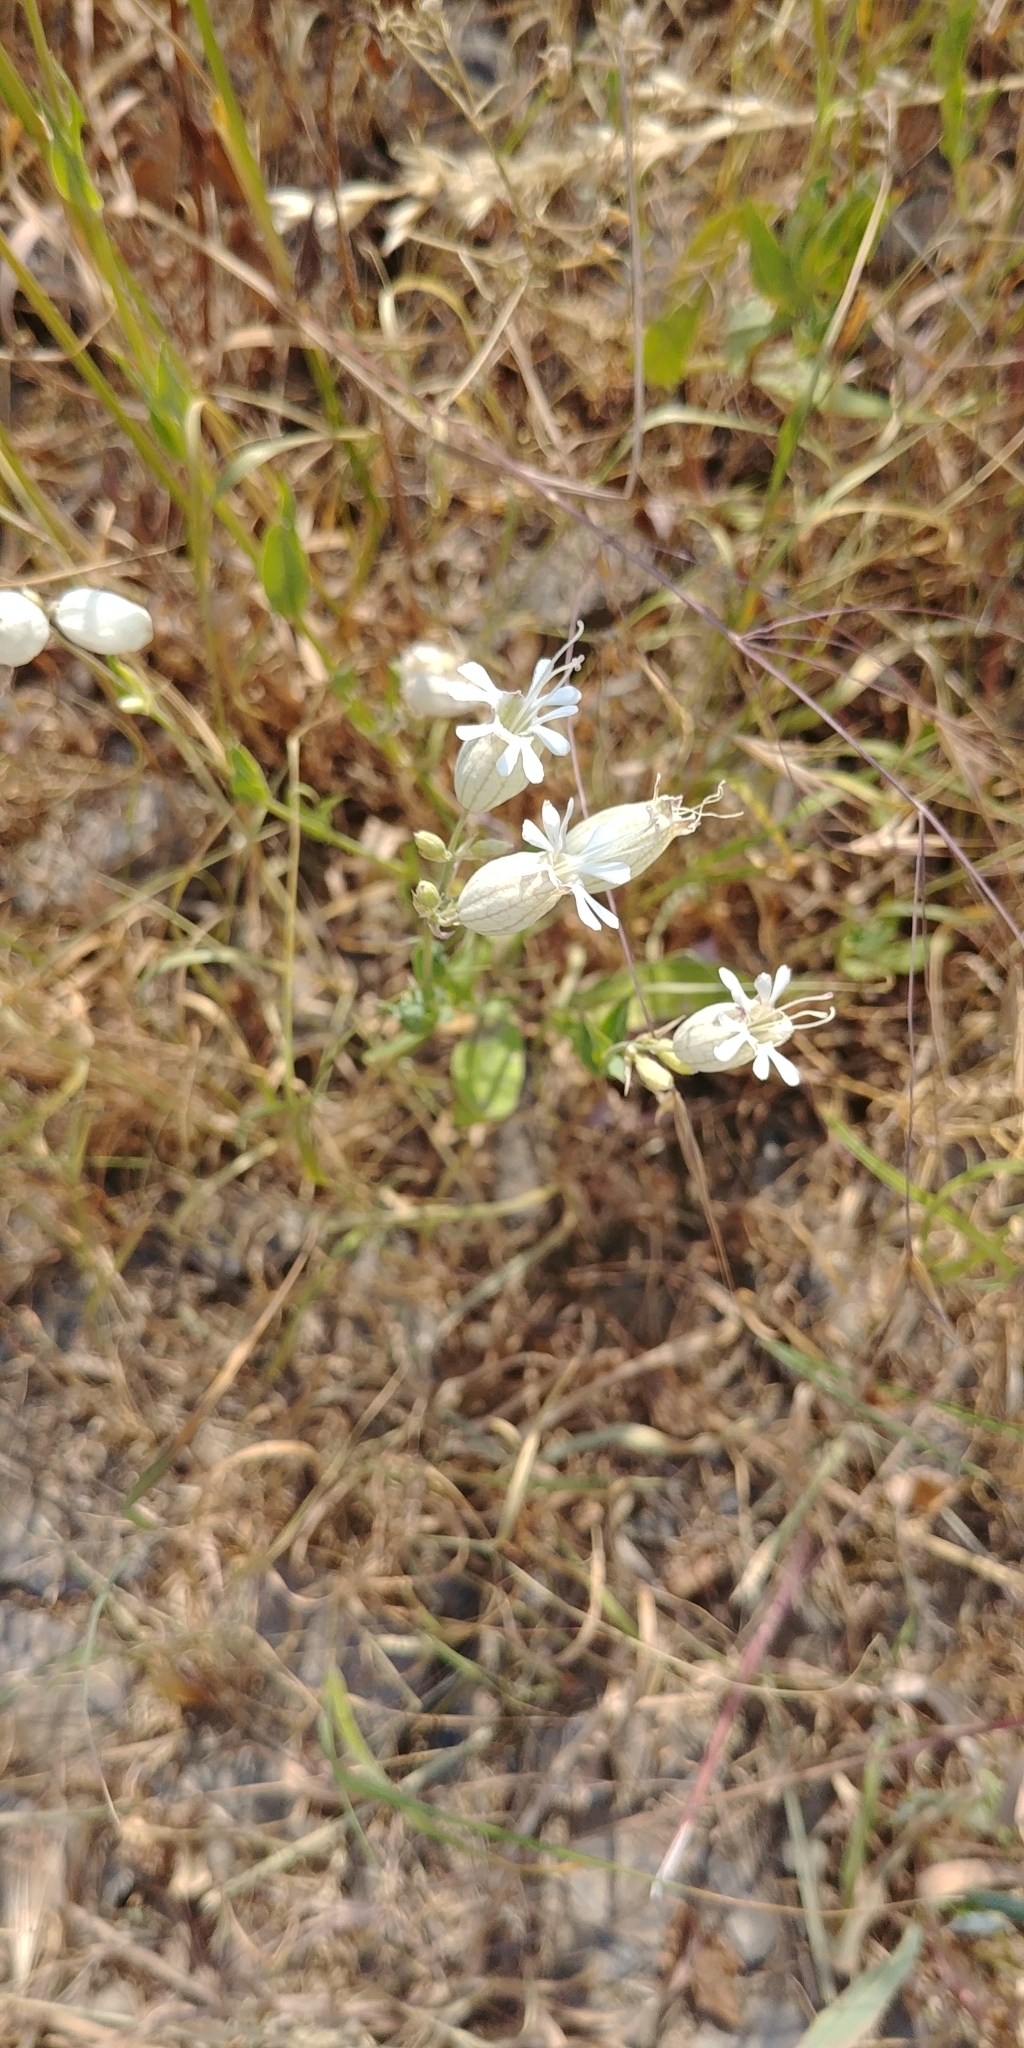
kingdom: Plantae
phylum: Tracheophyta
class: Magnoliopsida
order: Caryophyllales
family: Caryophyllaceae
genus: Silene
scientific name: Silene vulgaris
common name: Bladder campion
